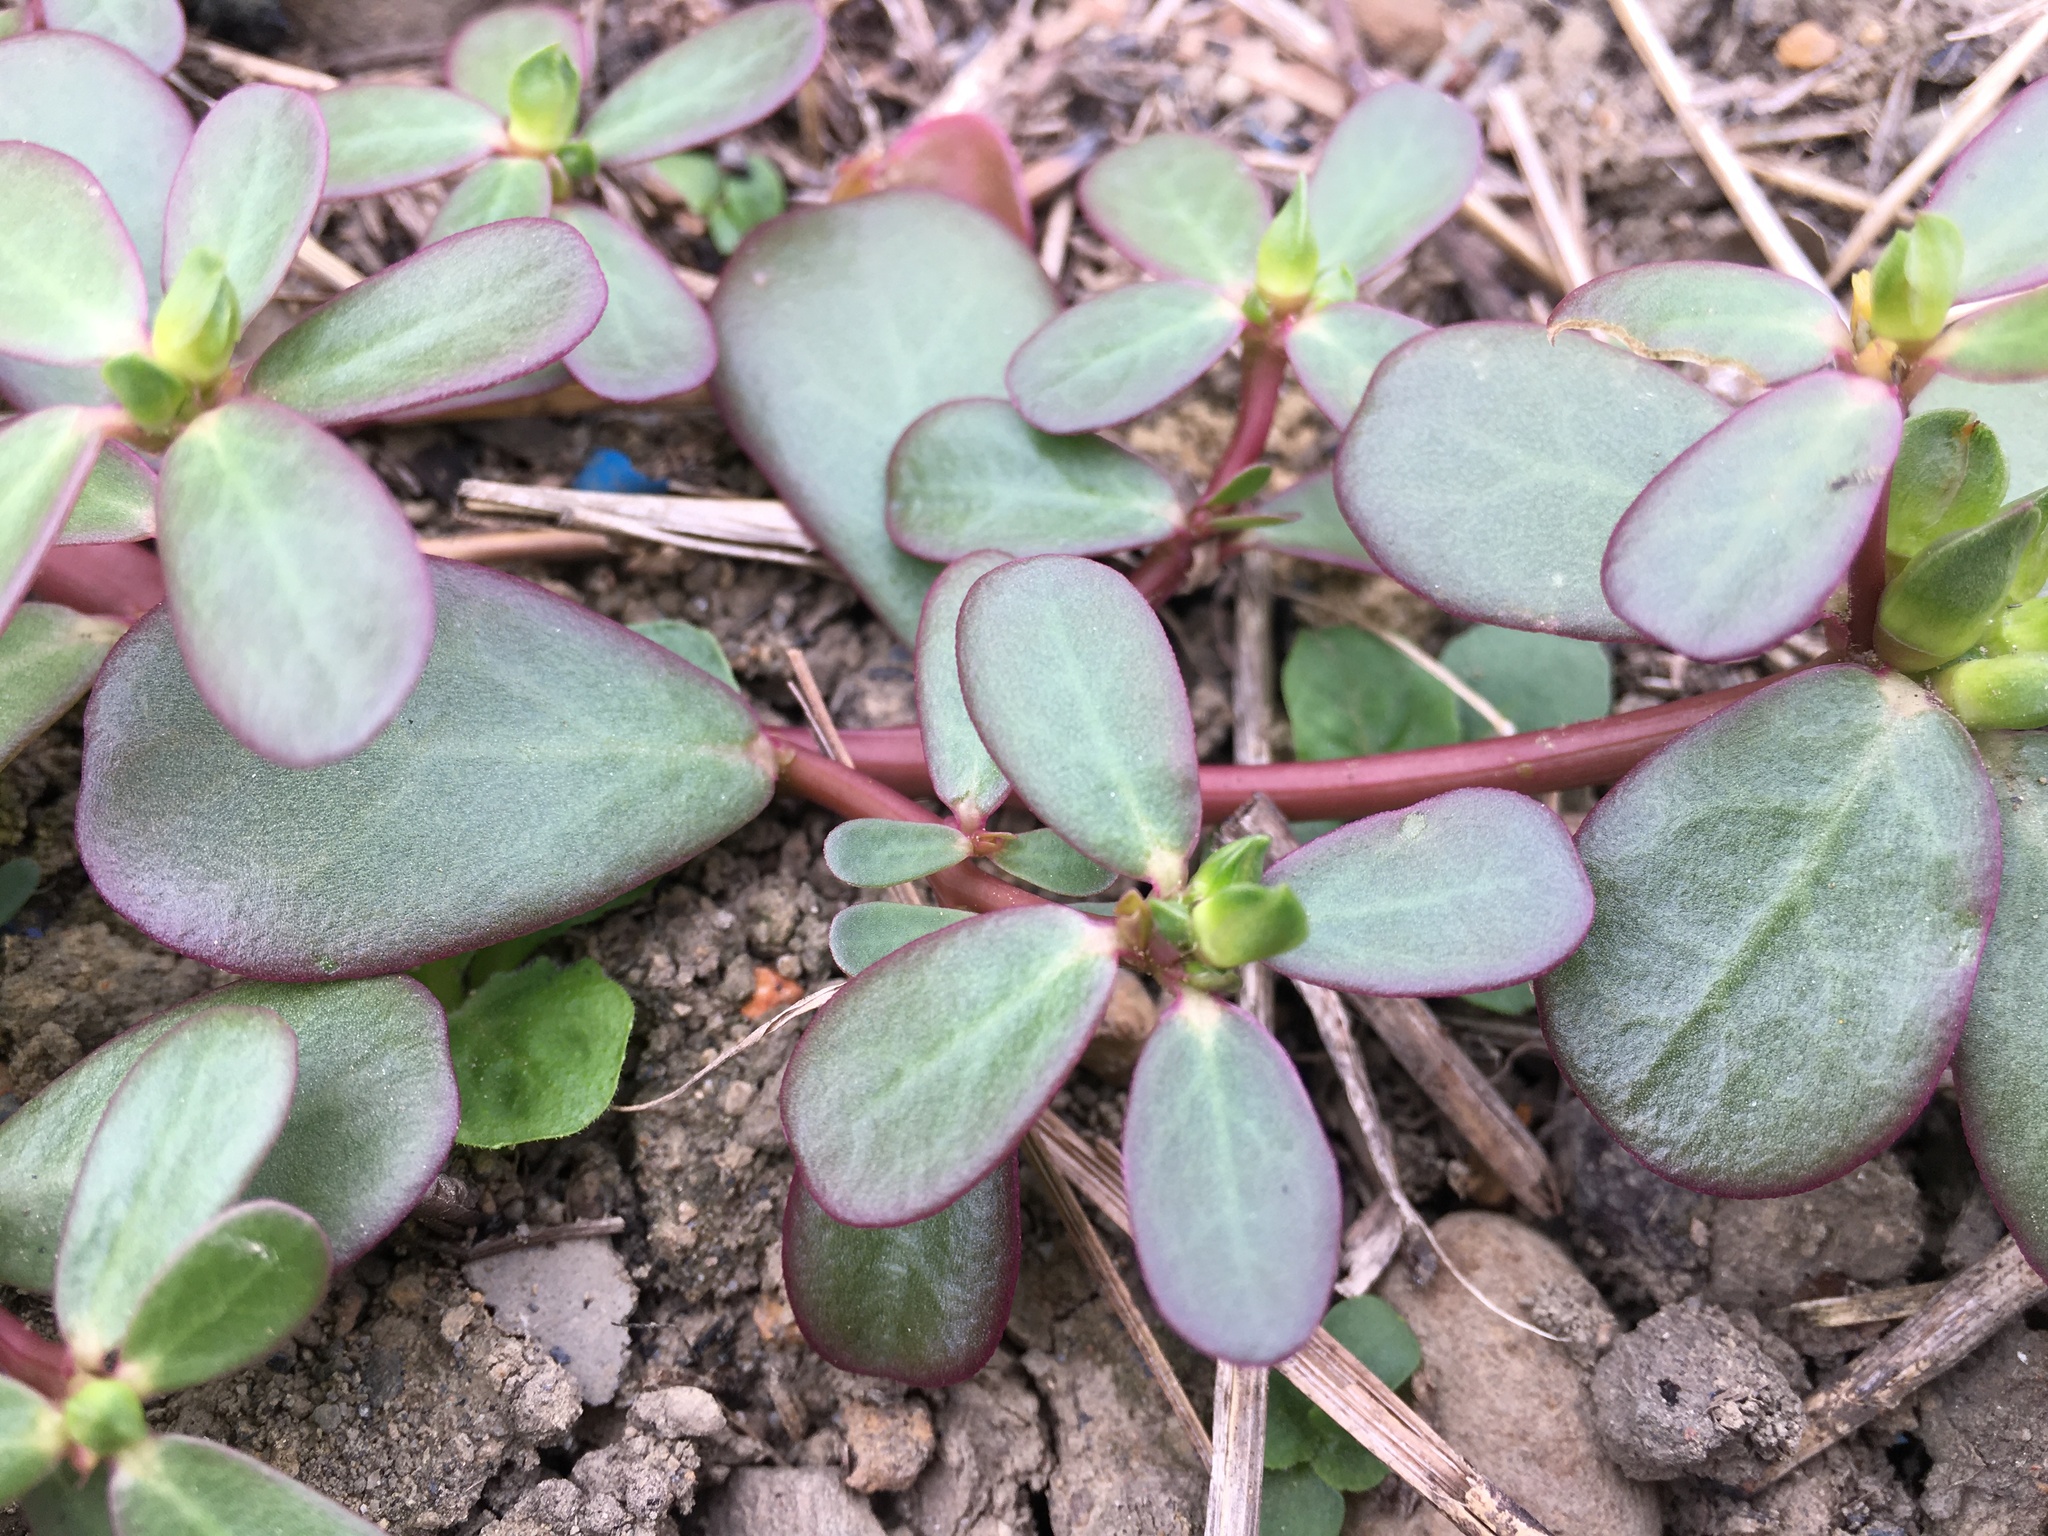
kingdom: Plantae
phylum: Tracheophyta
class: Magnoliopsida
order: Caryophyllales
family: Portulacaceae
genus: Portulaca
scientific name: Portulaca oleracea
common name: Common purslane
